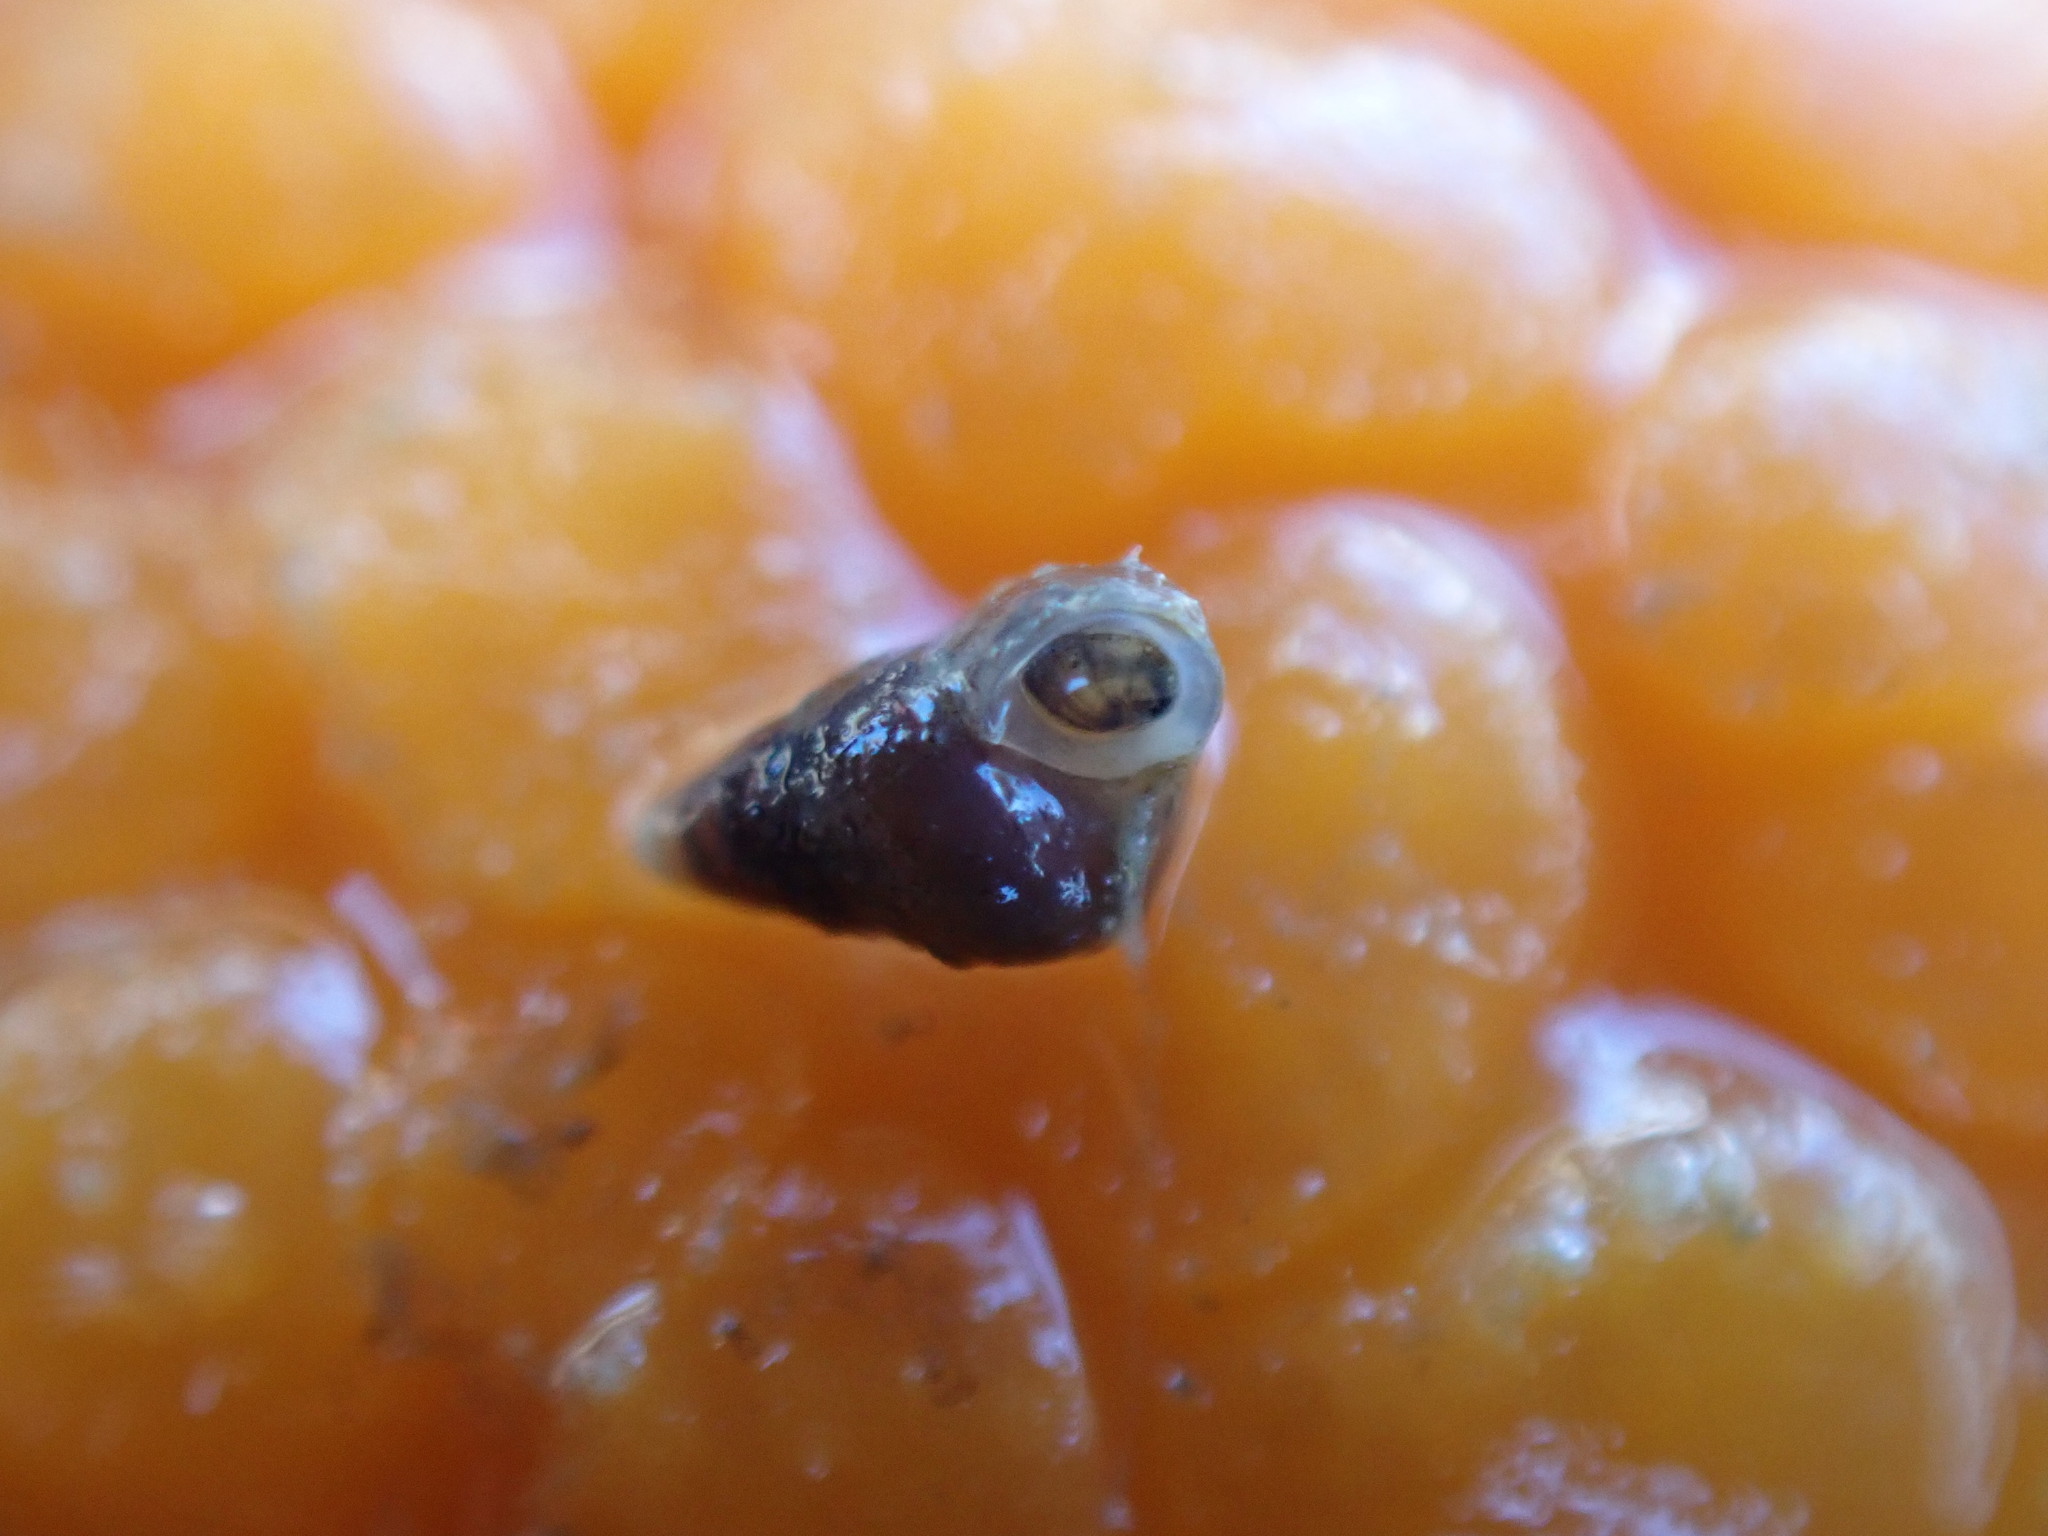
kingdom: Animalia
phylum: Mollusca
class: Gastropoda
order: Littorinimorpha
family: Eatoniellidae
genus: Eatoniella
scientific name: Eatoniella olivacea
